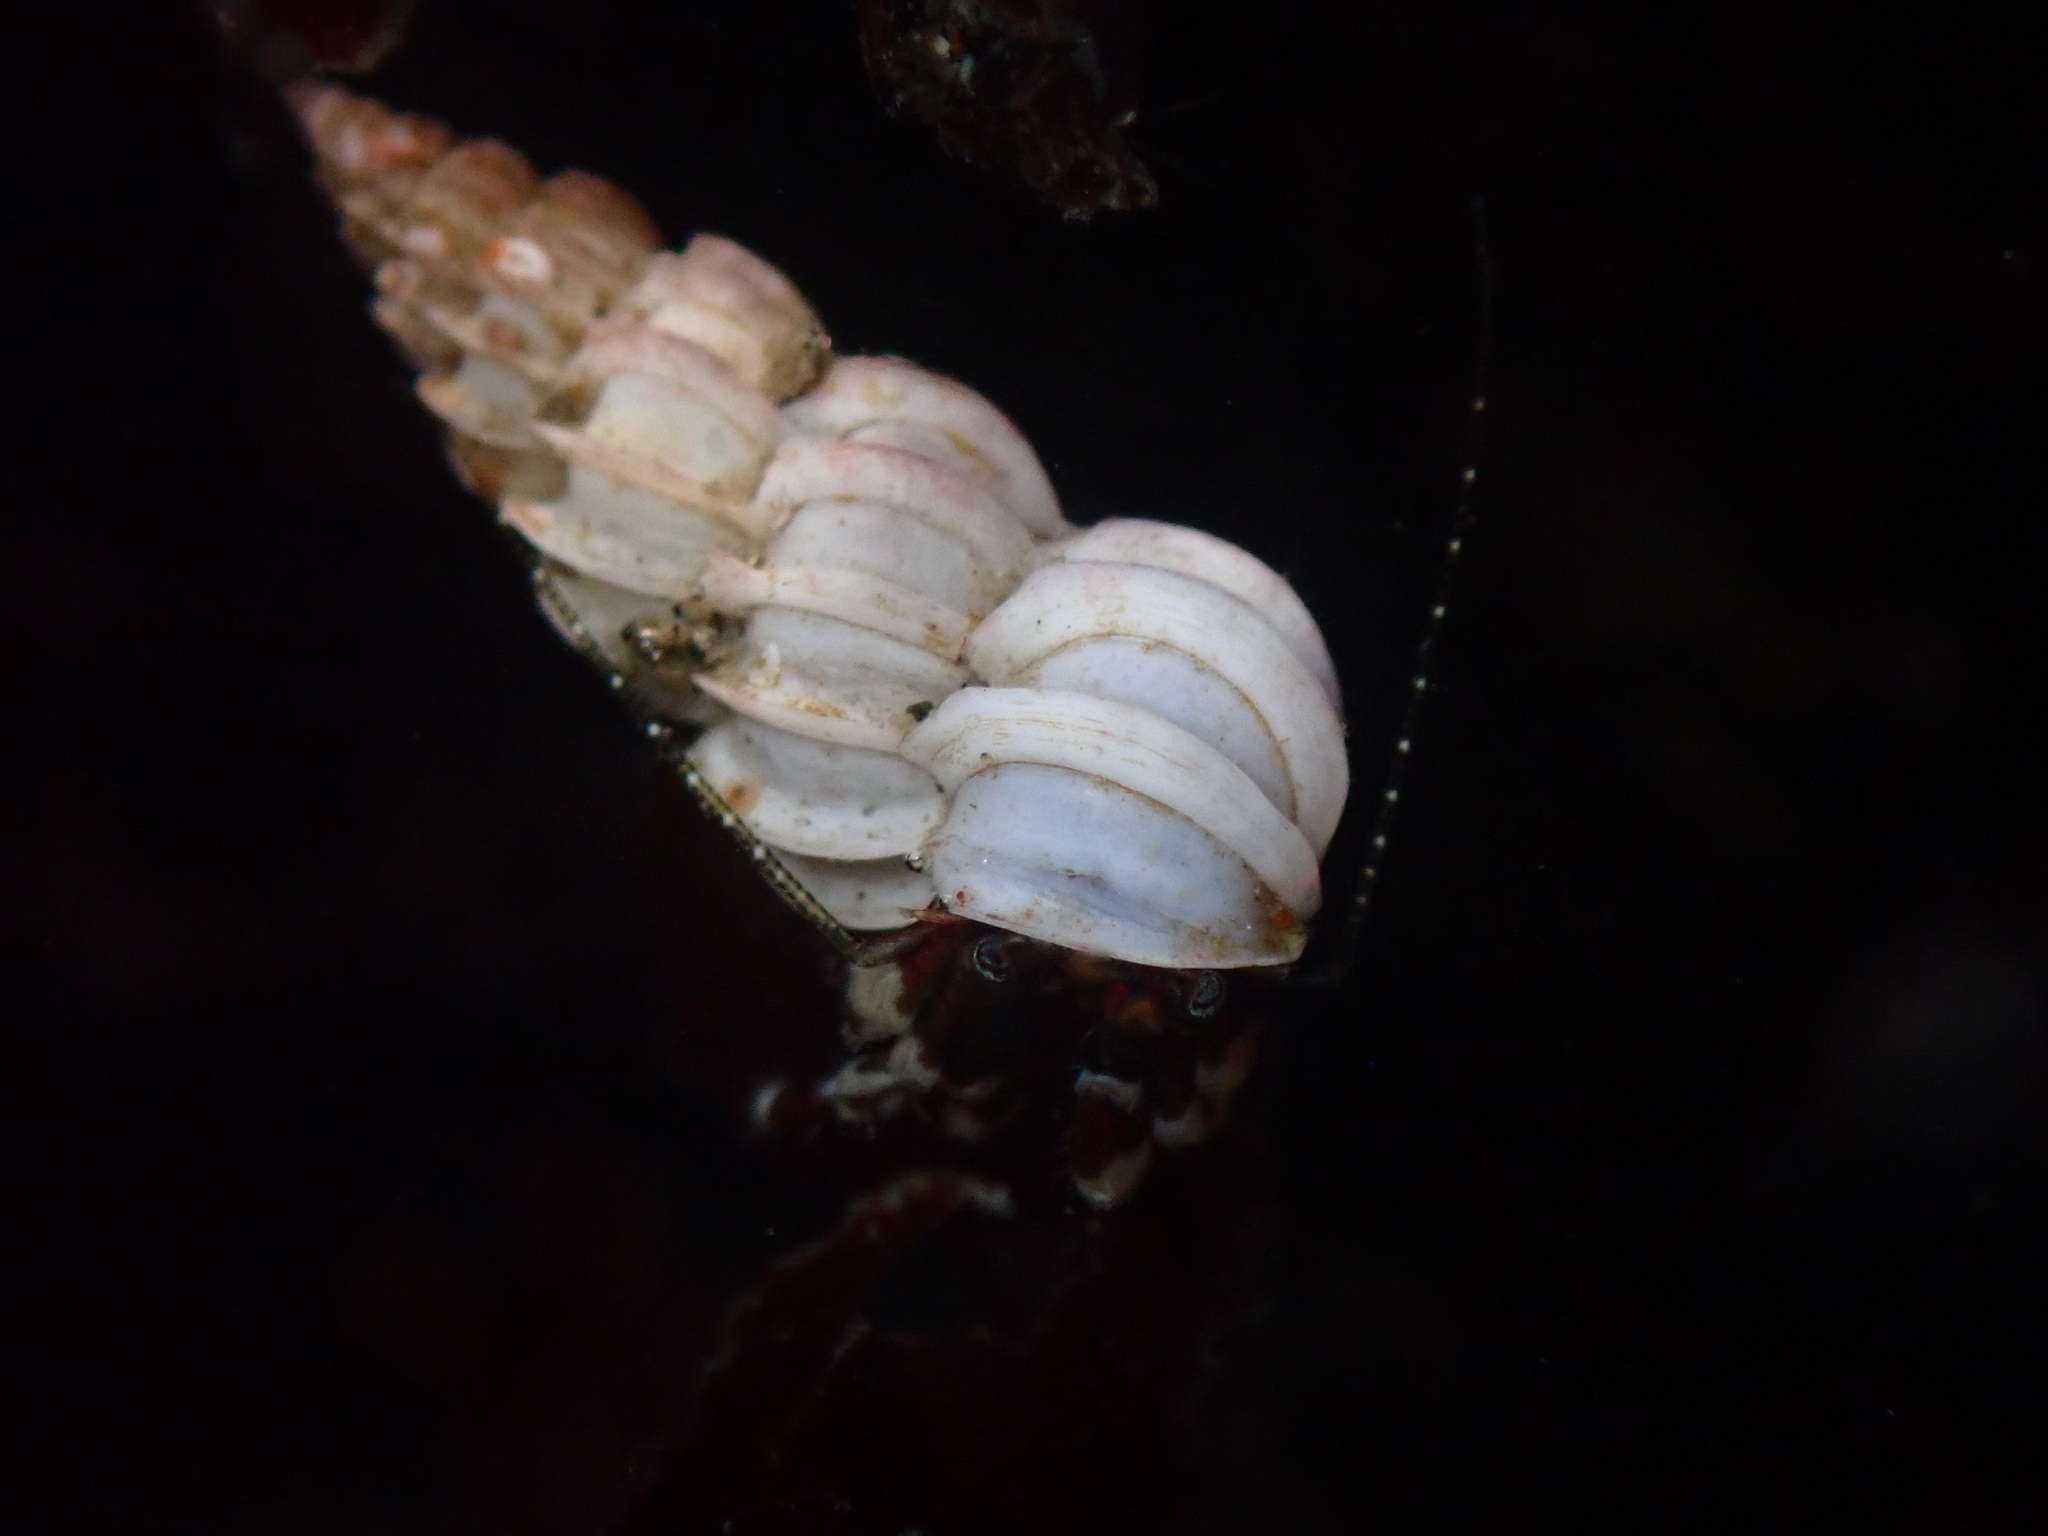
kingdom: Animalia
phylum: Mollusca
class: Gastropoda
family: Epitoniidae
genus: Epitonium
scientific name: Epitonium tinctum
